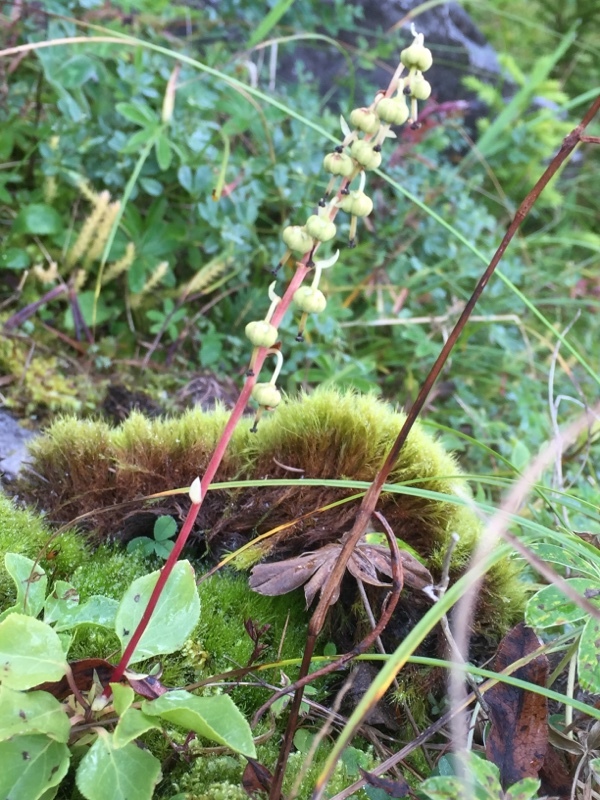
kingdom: Plantae
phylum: Tracheophyta
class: Magnoliopsida
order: Ericales
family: Ericaceae
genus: Orthilia
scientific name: Orthilia secunda
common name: One-sided orthilia
